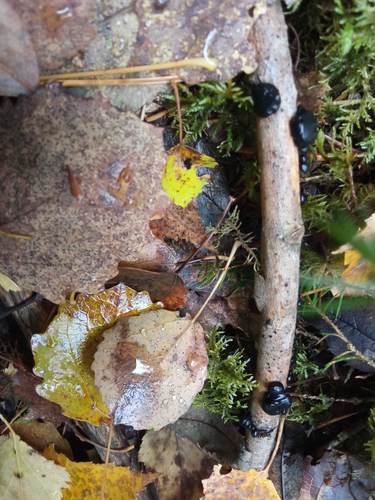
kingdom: Fungi
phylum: Basidiomycota
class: Agaricomycetes
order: Auriculariales
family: Auriculariaceae
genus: Exidia
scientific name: Exidia glandulosa
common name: Witches' butter
